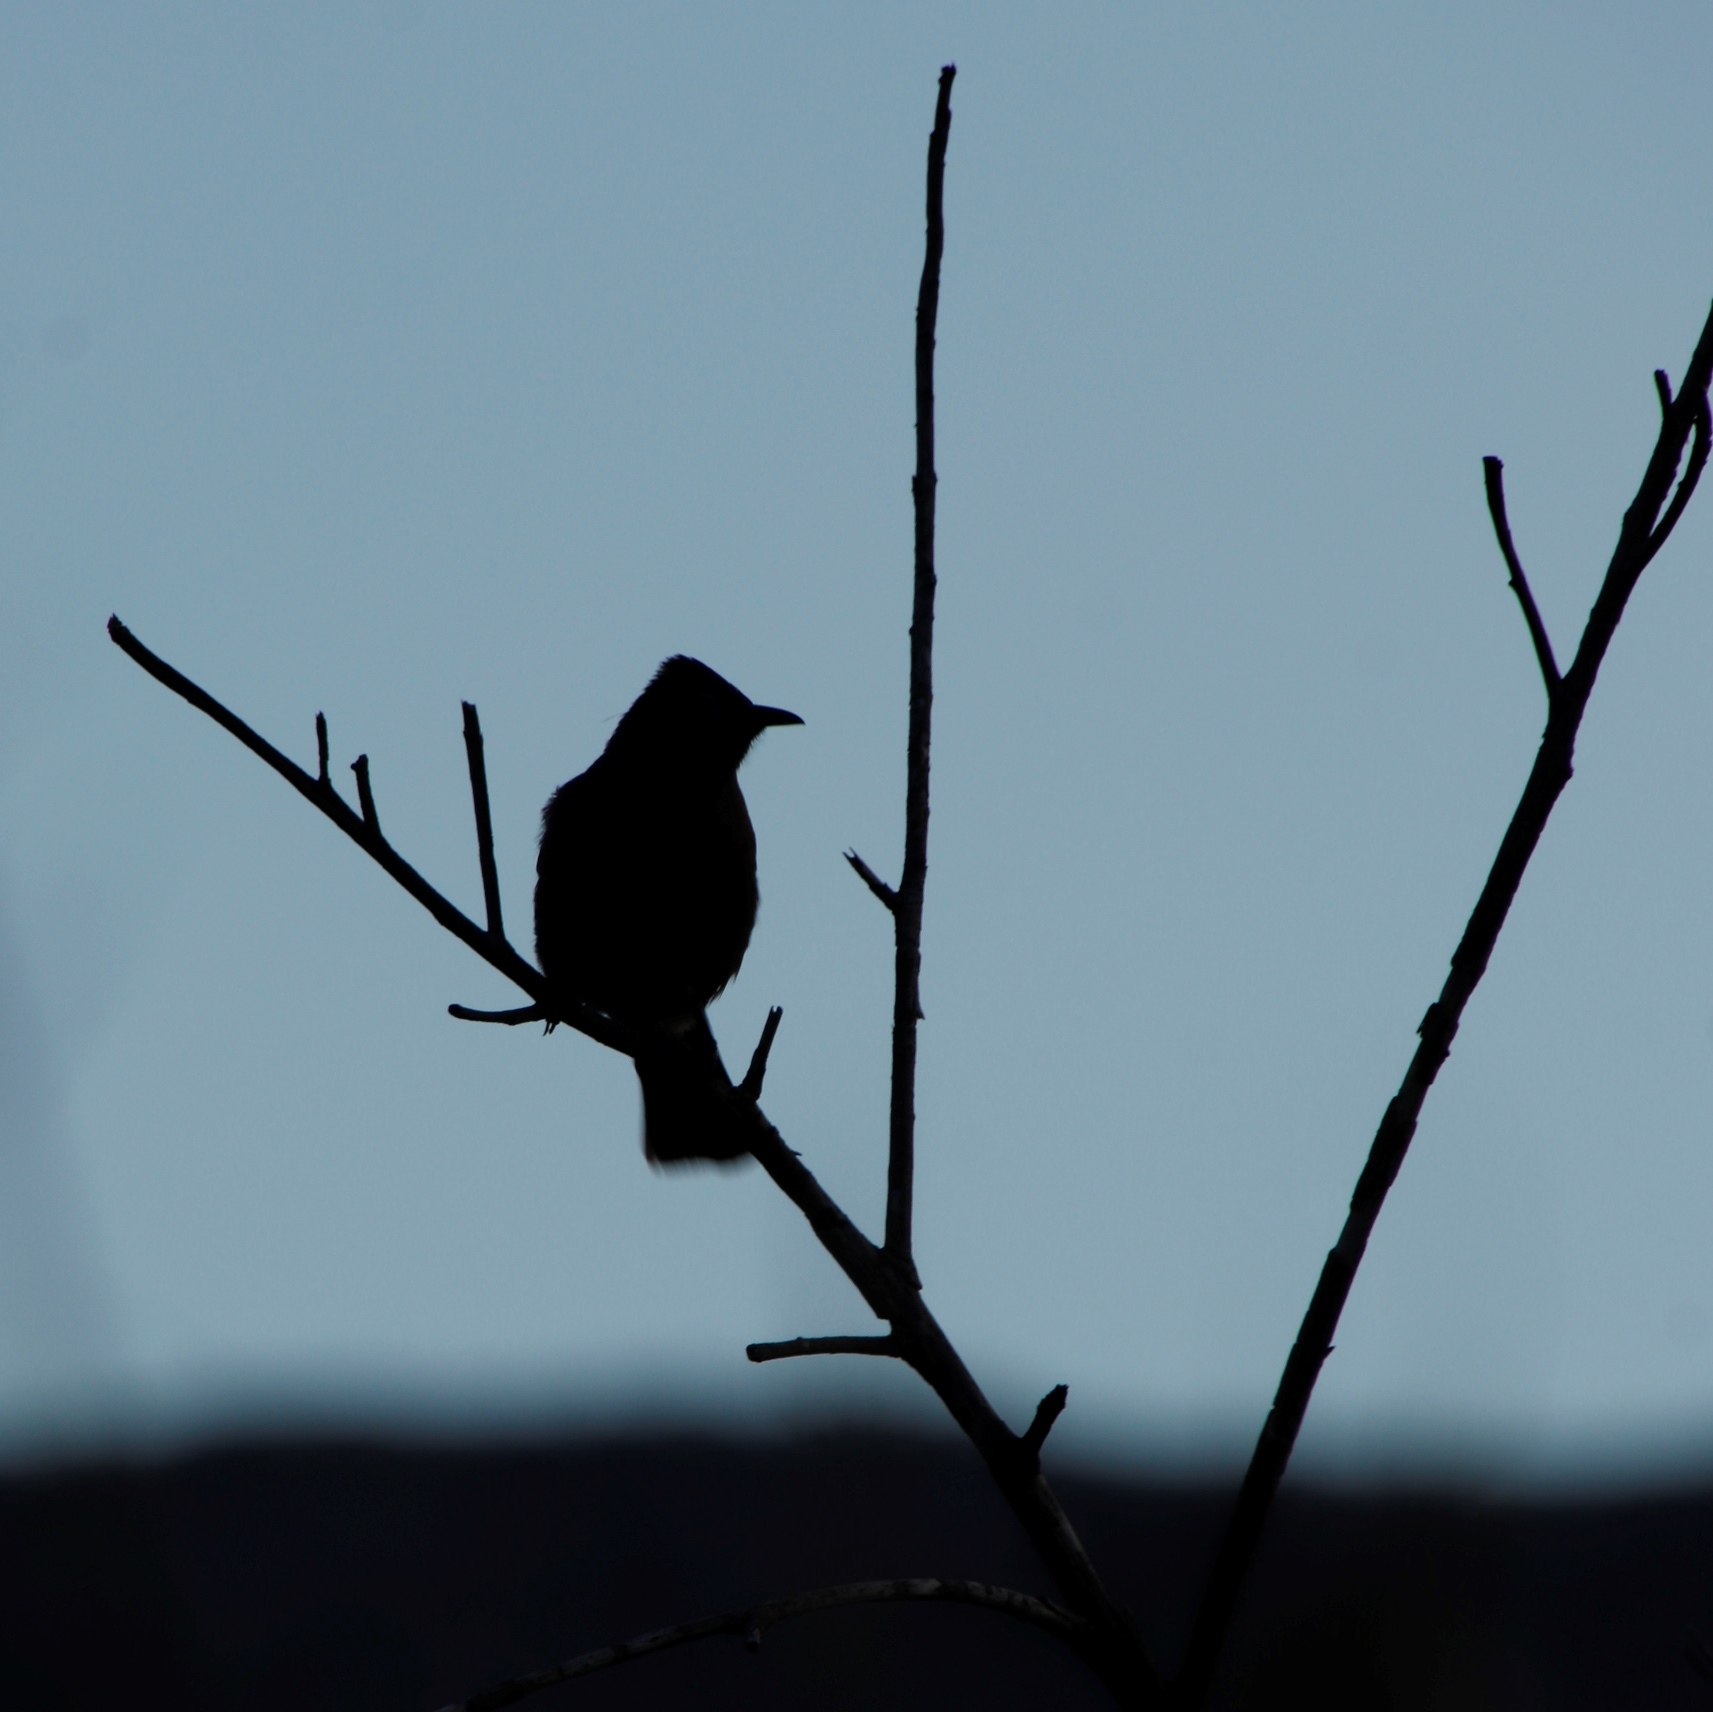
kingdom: Animalia
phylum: Chordata
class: Aves
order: Passeriformes
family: Pycnonotidae
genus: Pycnonotus
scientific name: Pycnonotus capensis
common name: Cape bulbul
